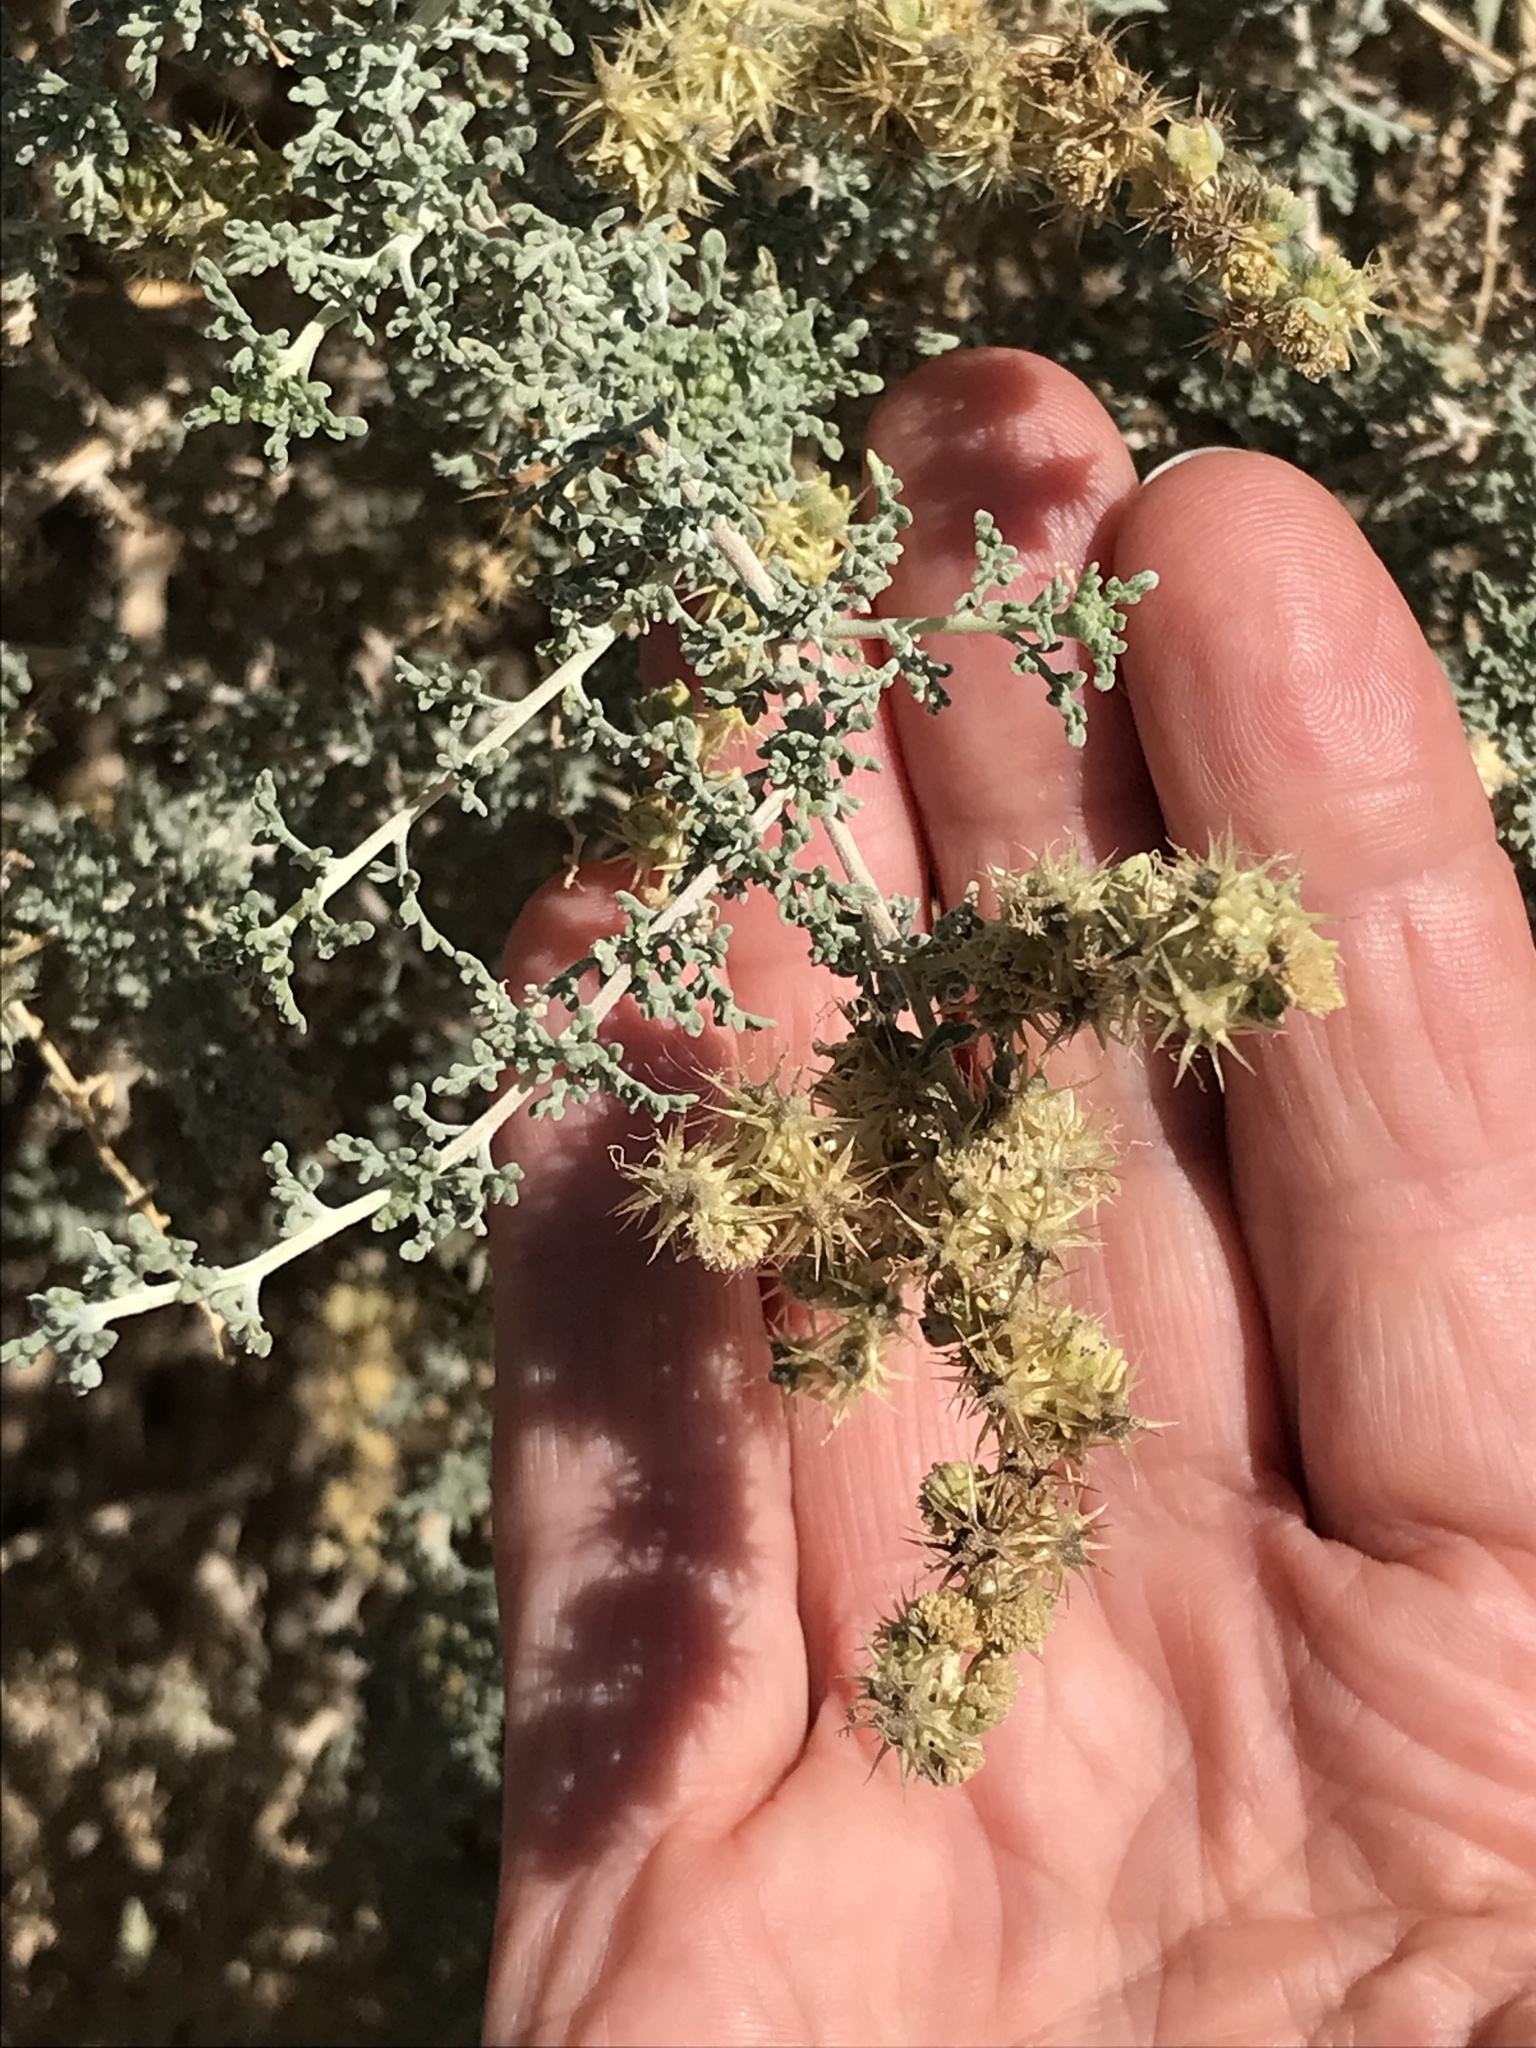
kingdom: Plantae
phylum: Tracheophyta
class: Magnoliopsida
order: Asterales
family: Asteraceae
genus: Ambrosia
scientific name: Ambrosia dumosa
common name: Bur-sage
